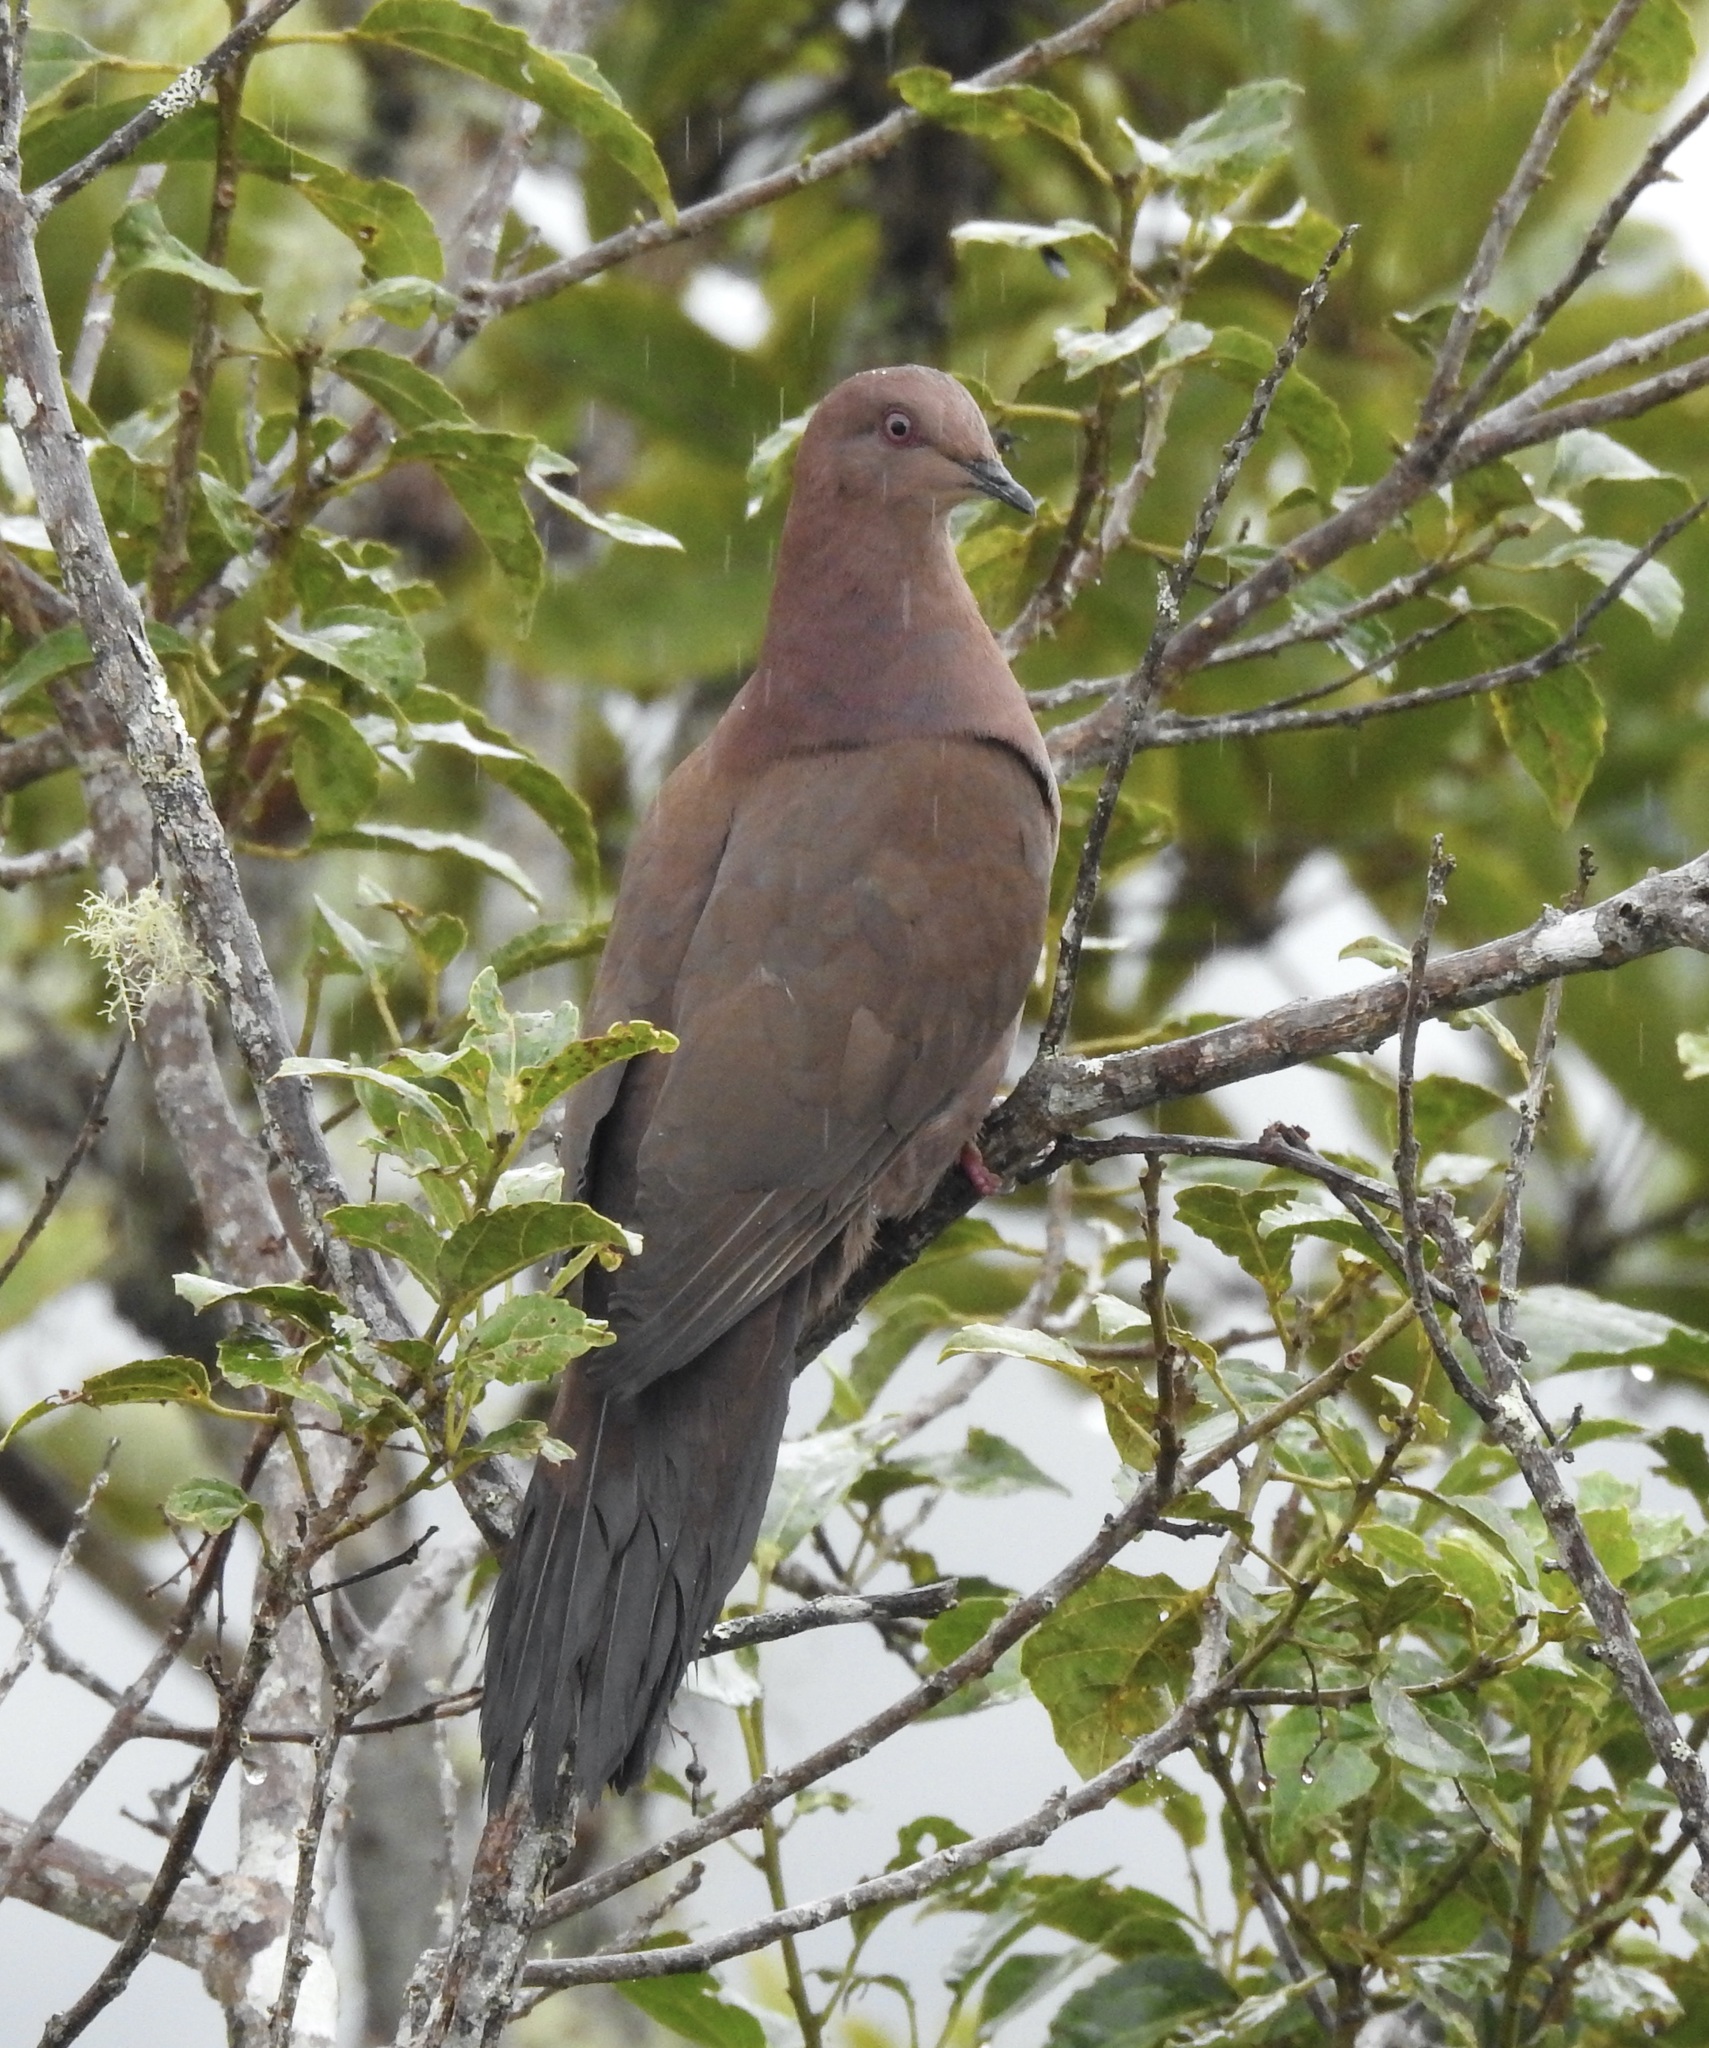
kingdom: Animalia
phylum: Chordata
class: Aves
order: Columbiformes
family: Columbidae
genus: Patagioenas
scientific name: Patagioenas subvinacea
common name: Ruddy pigeon
